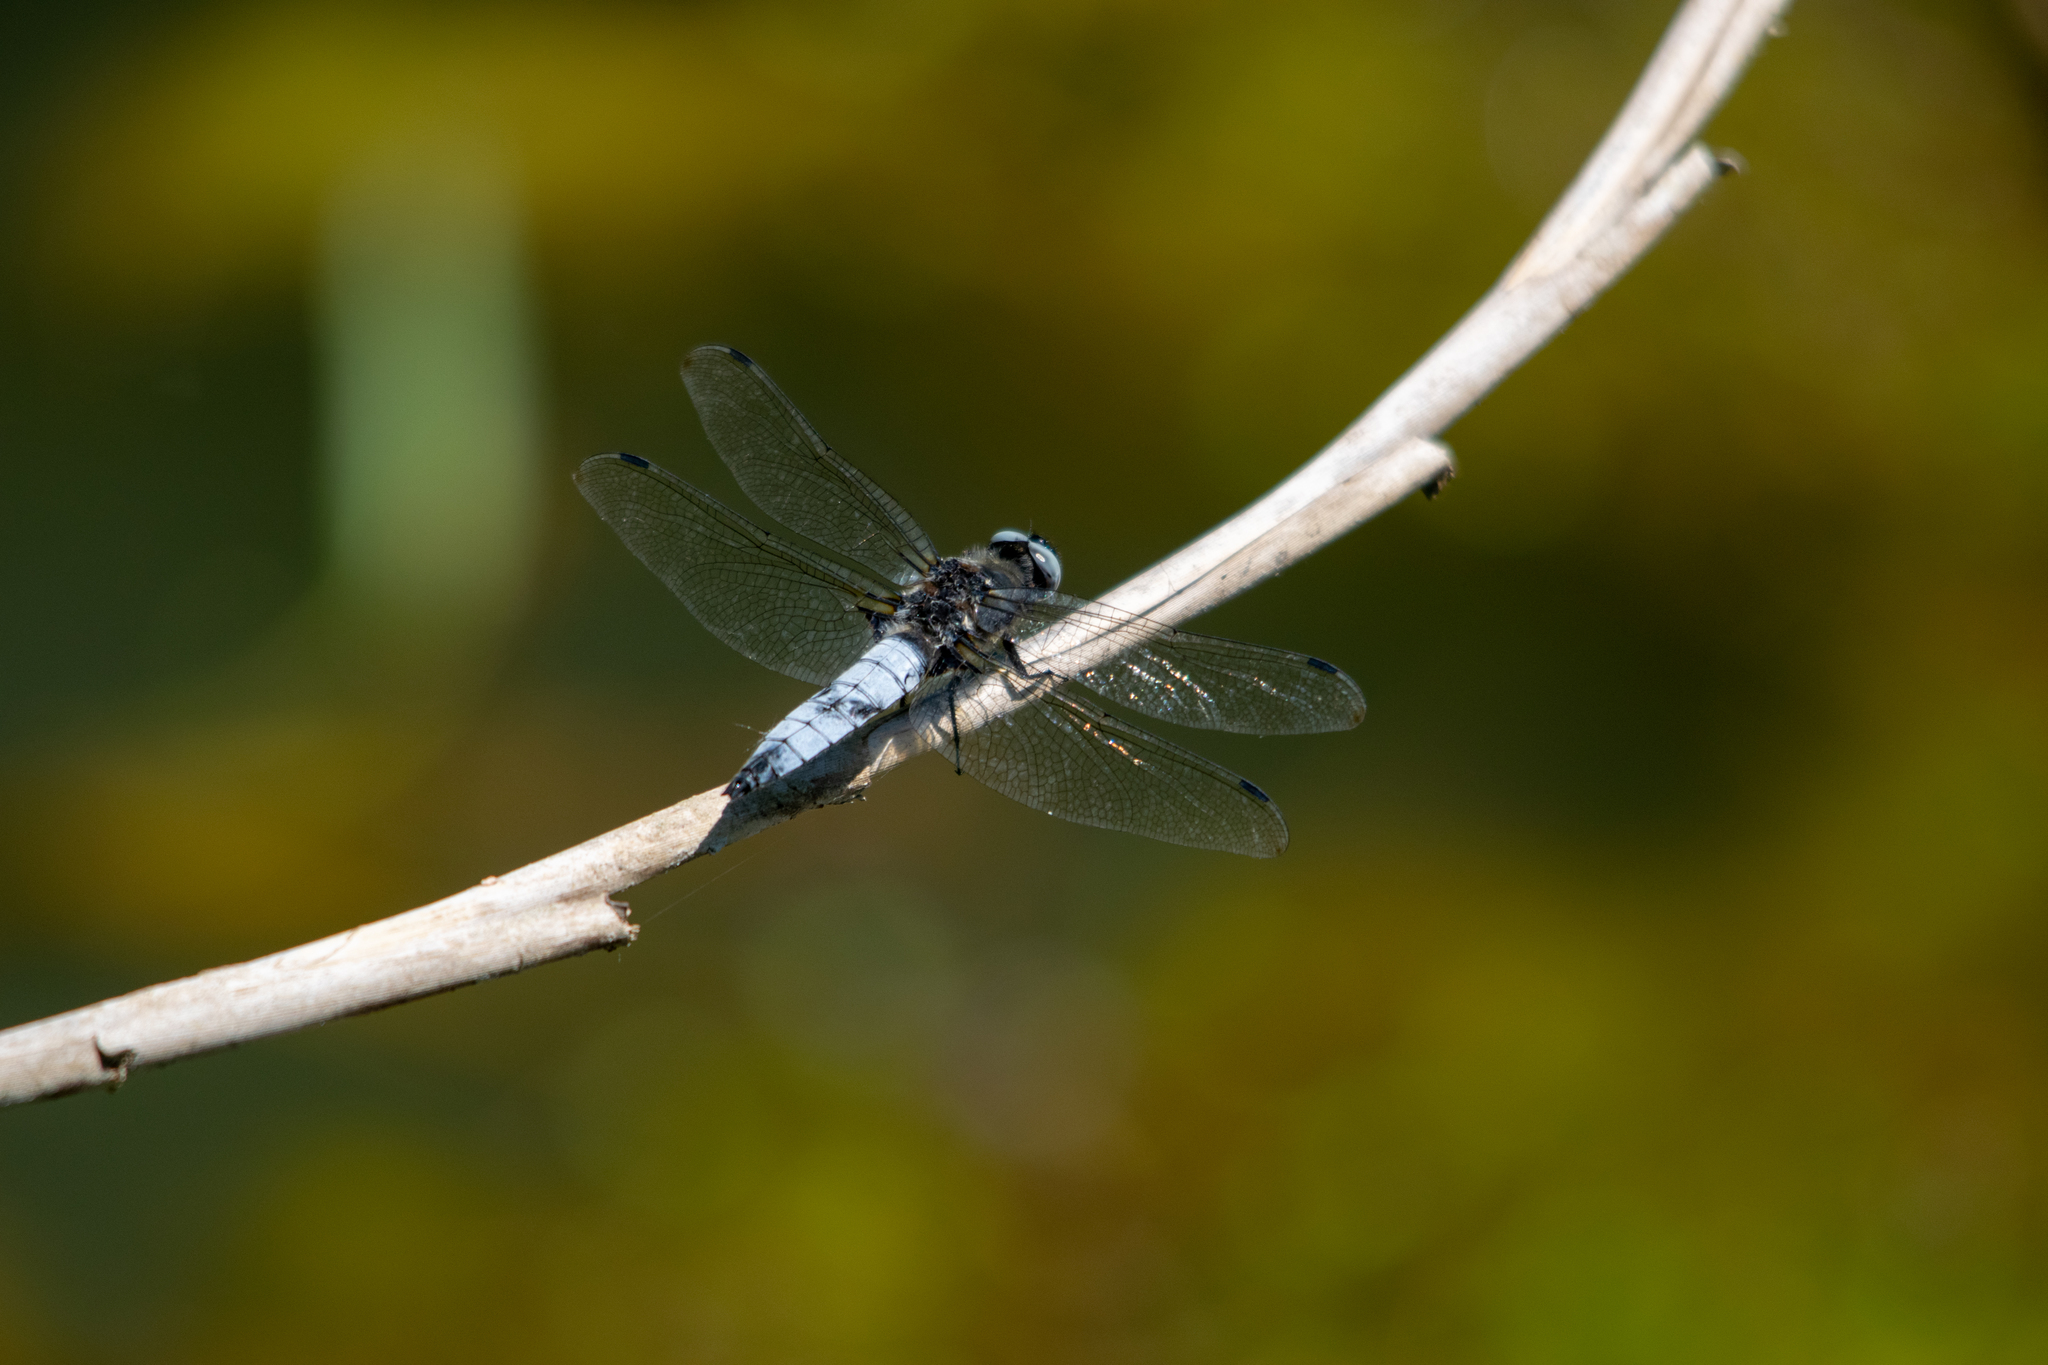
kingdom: Animalia
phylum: Arthropoda
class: Insecta
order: Odonata
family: Libellulidae
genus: Libellula
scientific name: Libellula fulva
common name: Blue chaser
